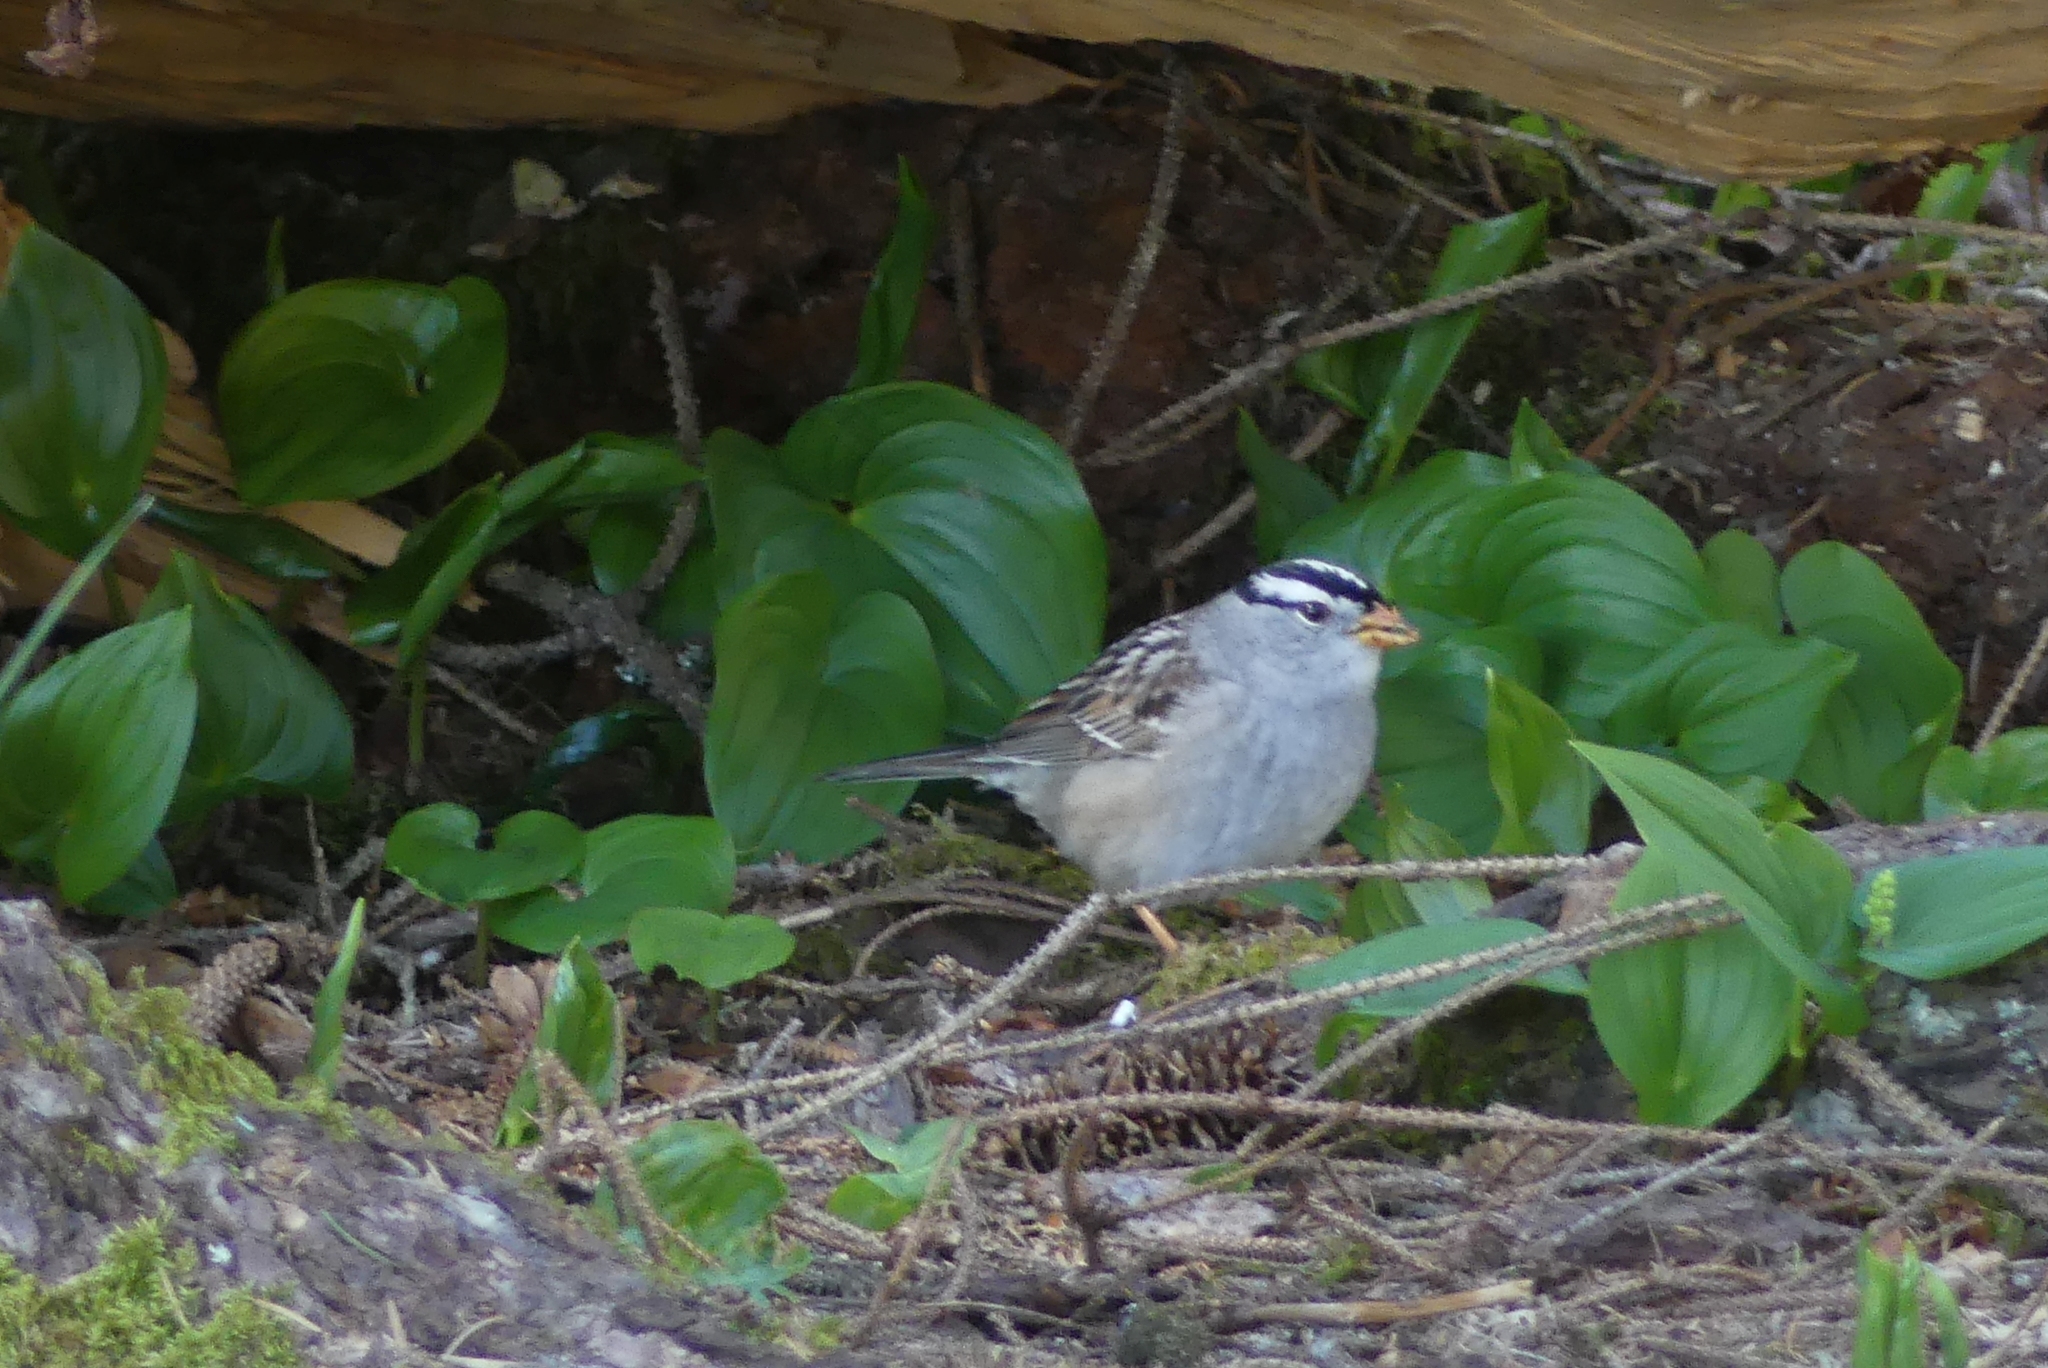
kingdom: Animalia
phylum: Chordata
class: Aves
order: Passeriformes
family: Passerellidae
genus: Zonotrichia
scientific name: Zonotrichia leucophrys
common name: White-crowned sparrow
